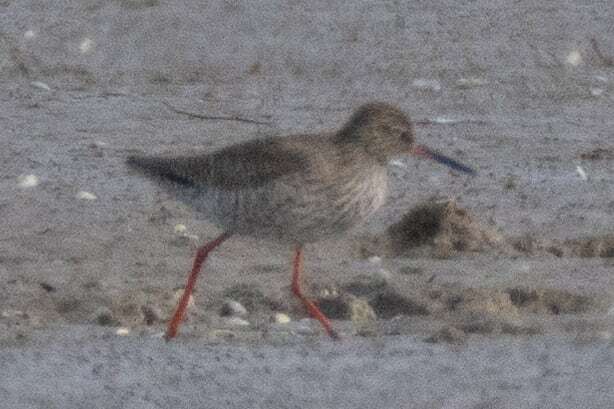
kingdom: Animalia
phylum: Chordata
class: Aves
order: Charadriiformes
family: Scolopacidae
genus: Tringa
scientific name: Tringa totanus
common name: Common redshank
